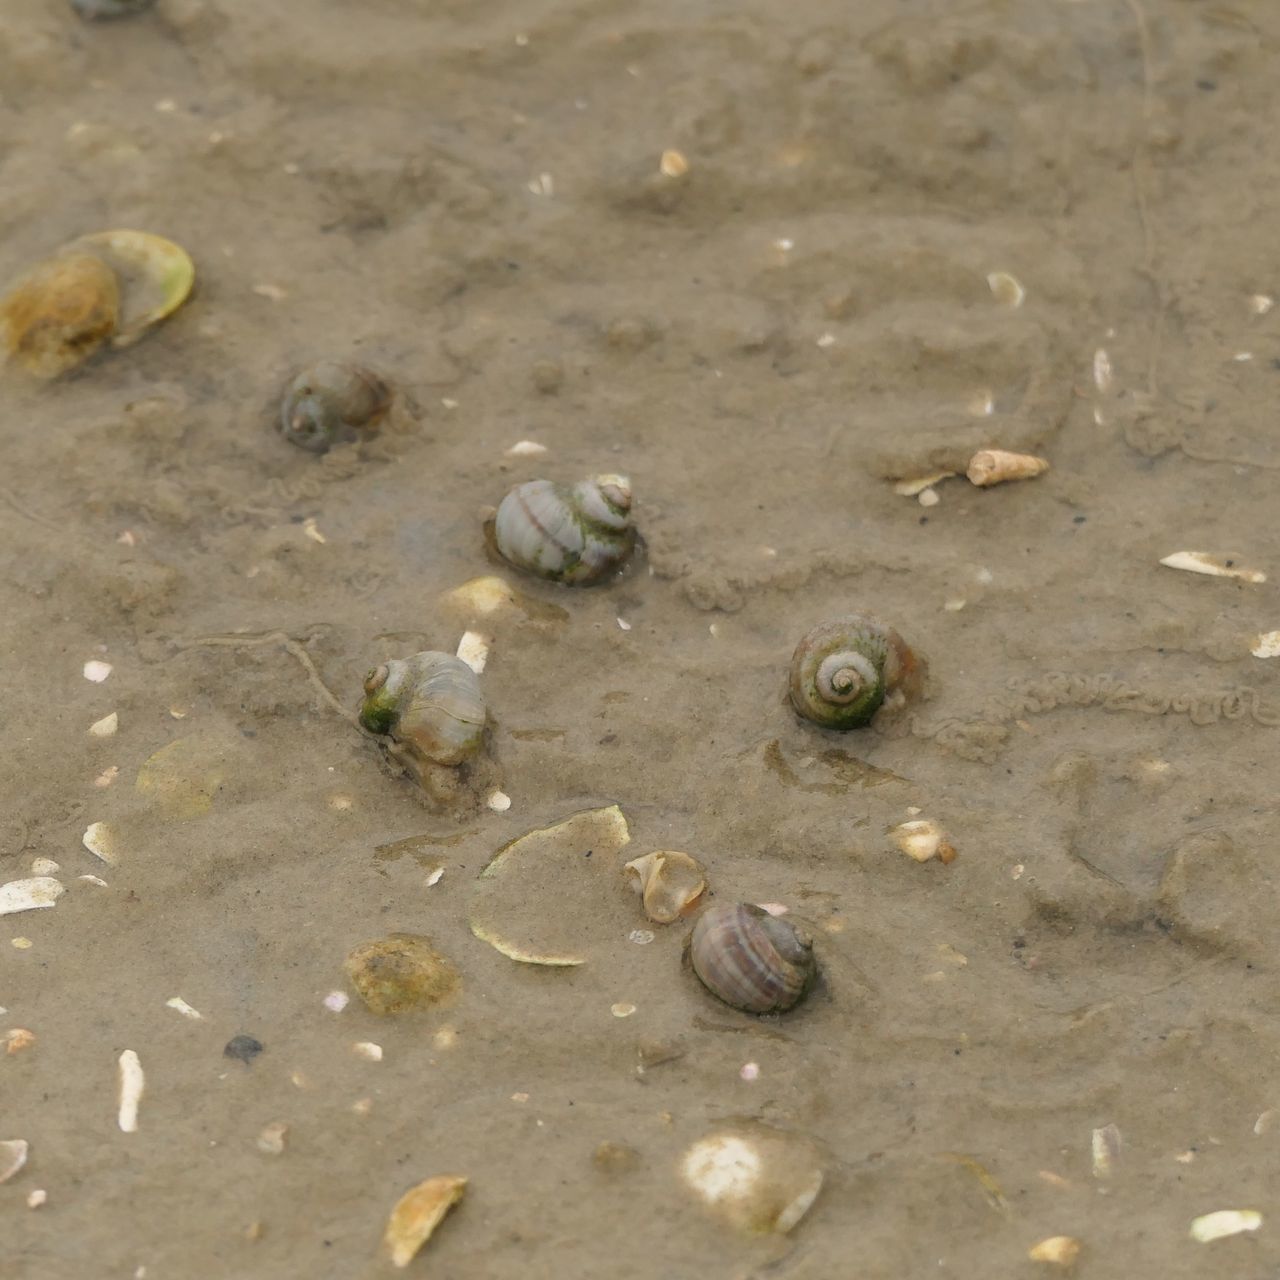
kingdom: Animalia
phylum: Mollusca
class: Gastropoda
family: Amphibolidae
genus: Salinator
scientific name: Salinator fragilis
